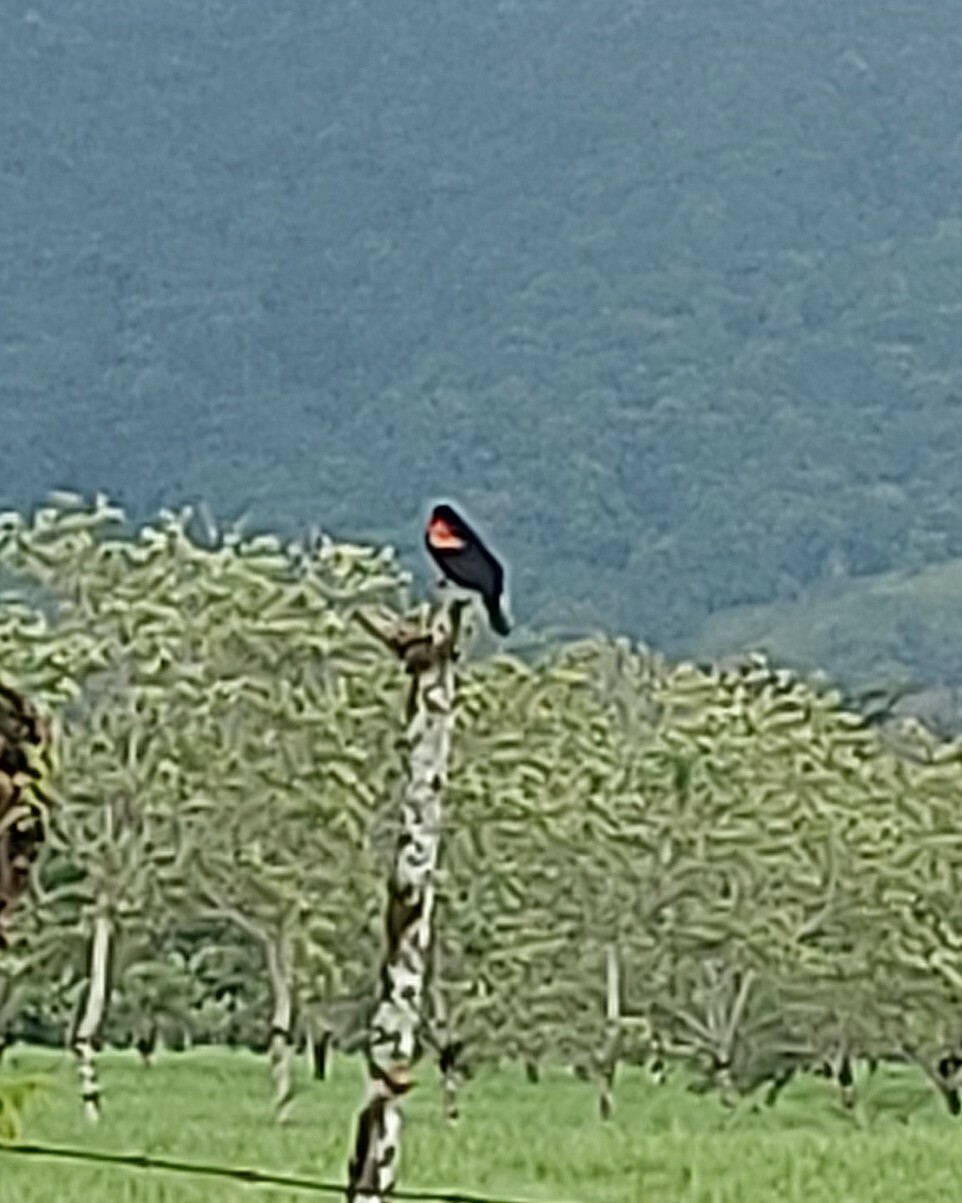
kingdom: Animalia
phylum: Chordata
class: Aves
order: Passeriformes
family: Icteridae
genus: Agelaius
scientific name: Agelaius phoeniceus
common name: Red-winged blackbird
